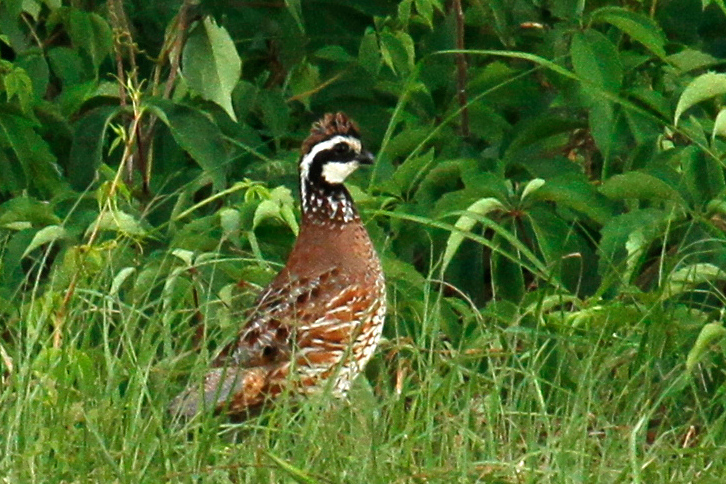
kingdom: Animalia
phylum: Chordata
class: Aves
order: Galliformes
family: Odontophoridae
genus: Colinus
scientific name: Colinus virginianus
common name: Northern bobwhite
